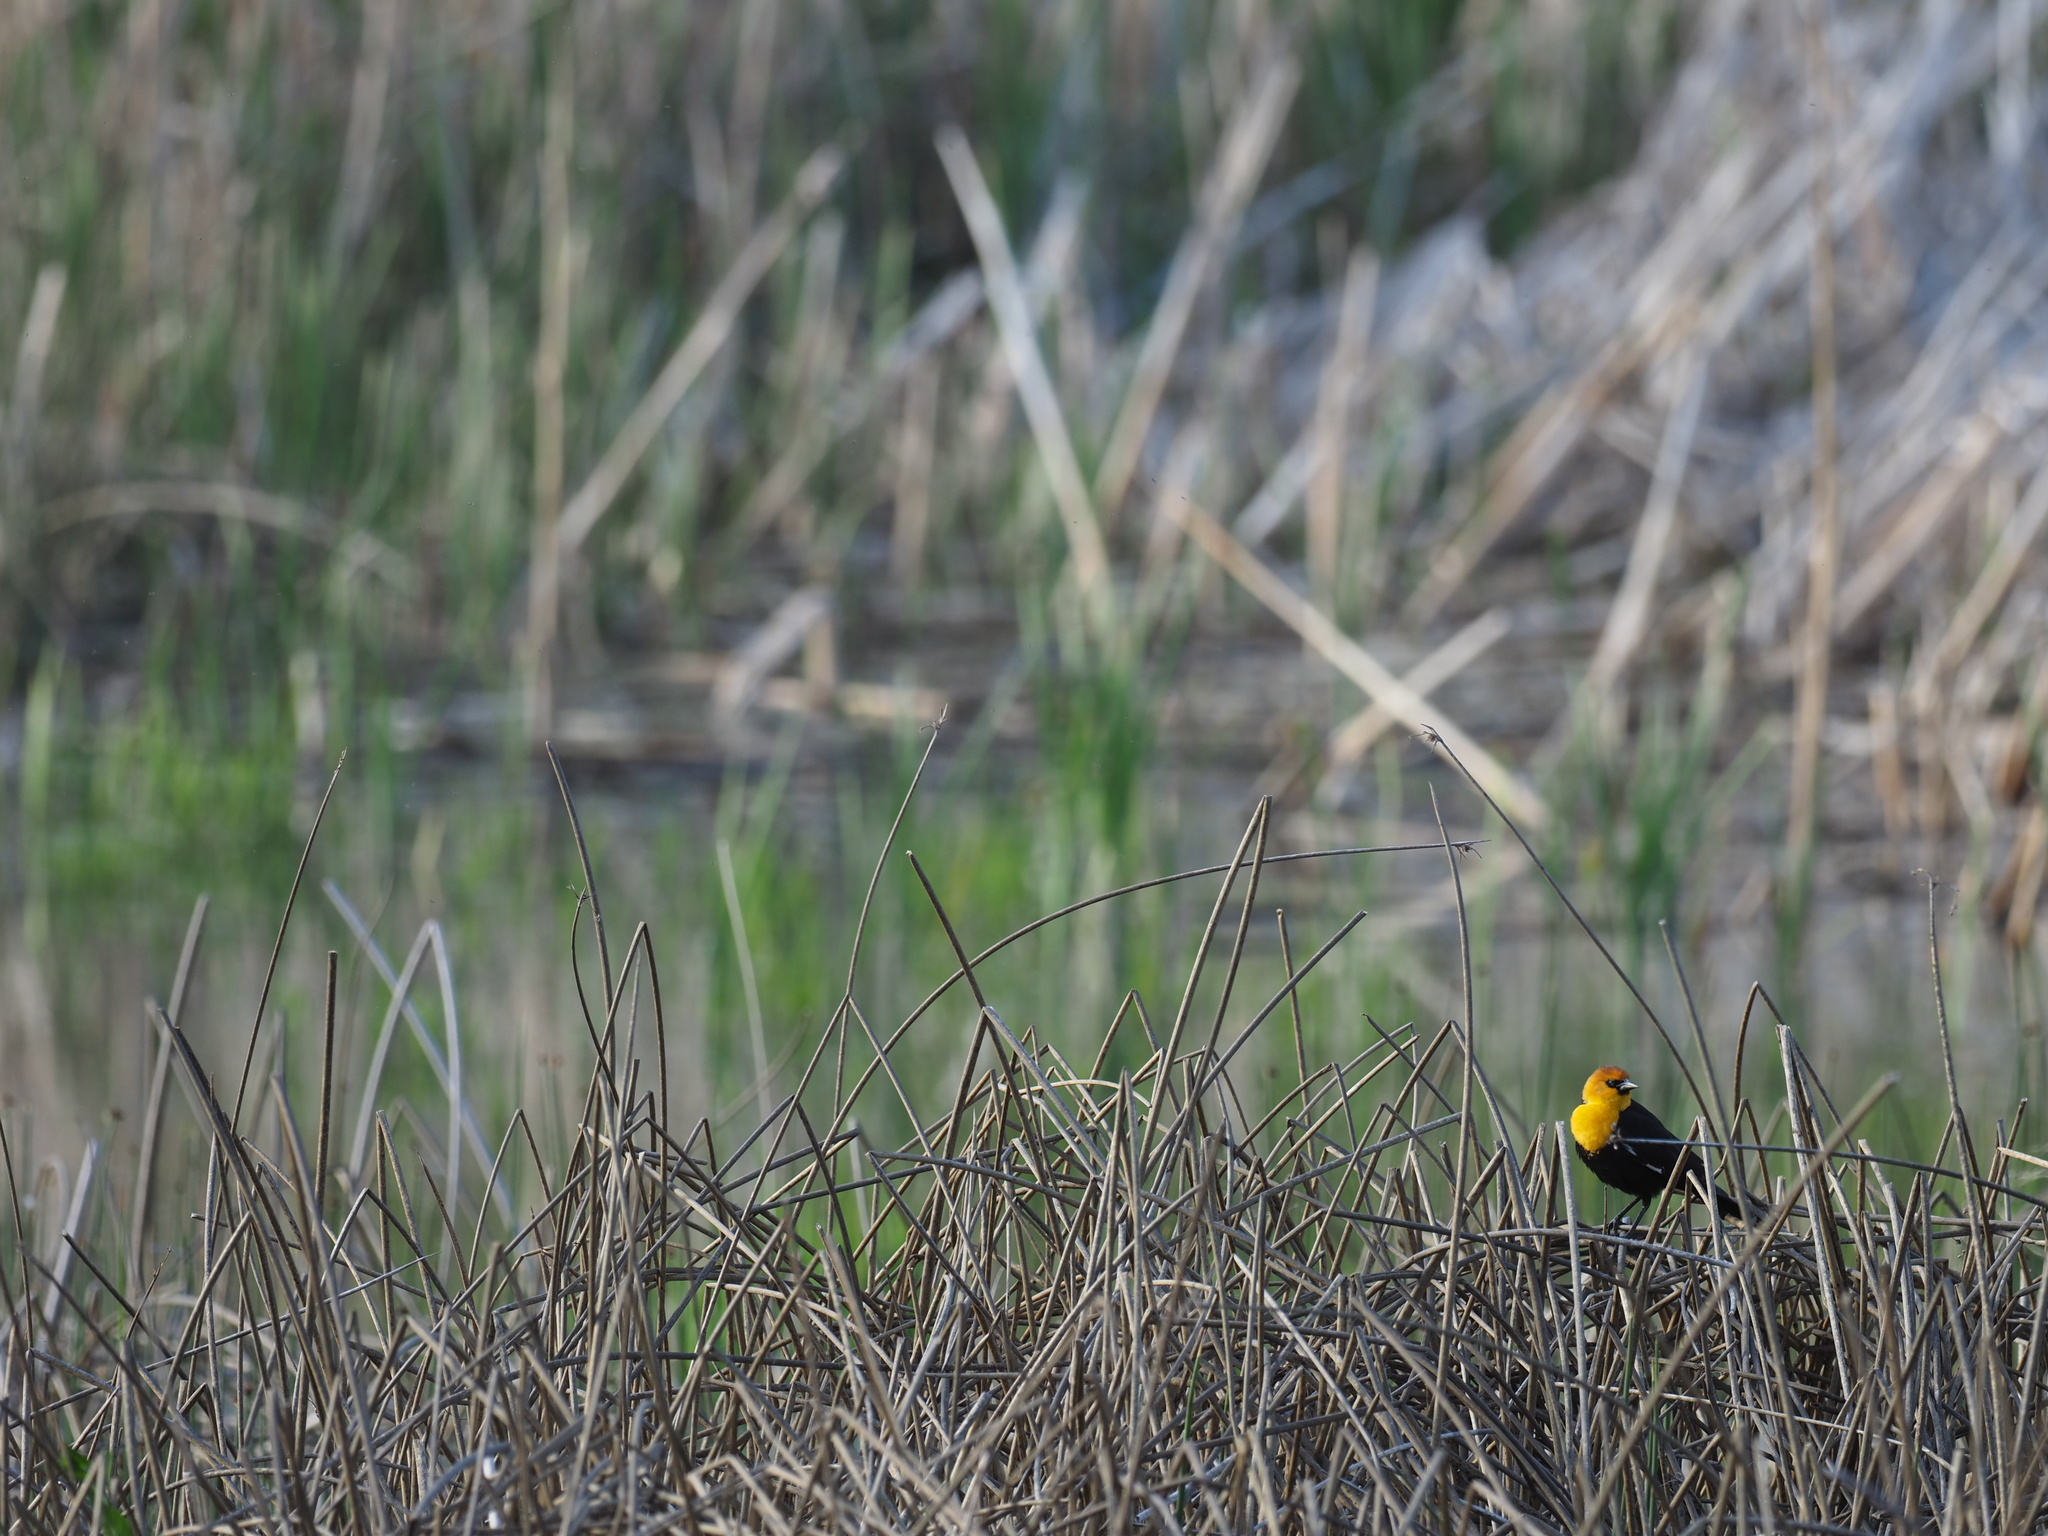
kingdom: Animalia
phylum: Chordata
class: Aves
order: Passeriformes
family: Icteridae
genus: Xanthocephalus
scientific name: Xanthocephalus xanthocephalus
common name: Yellow-headed blackbird
